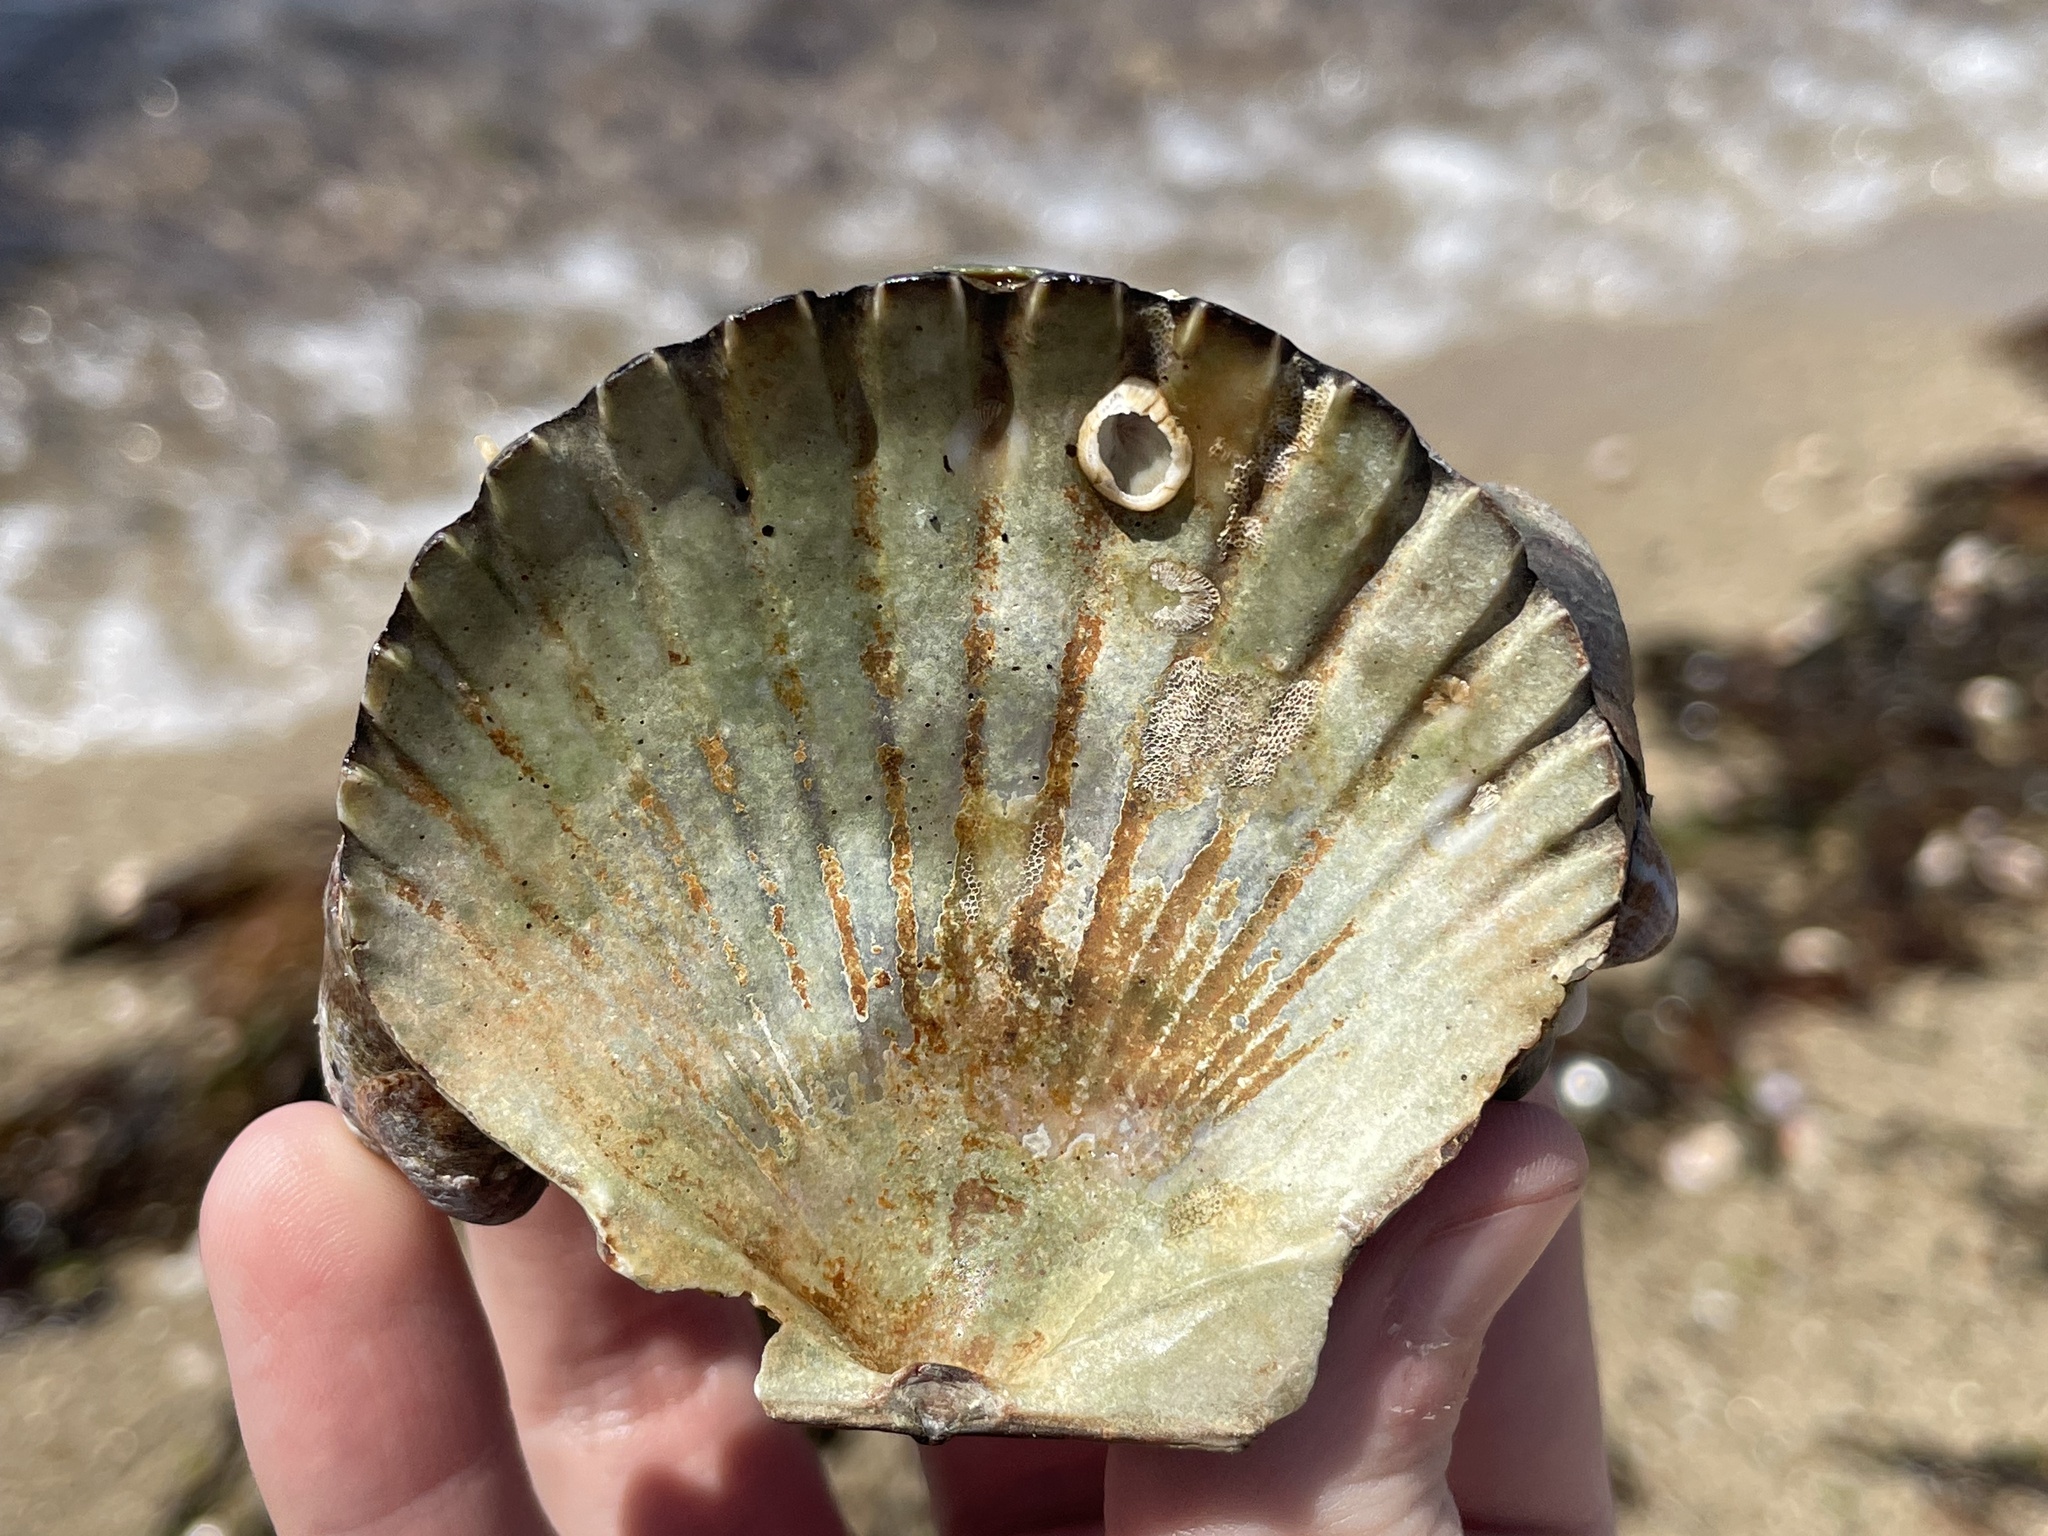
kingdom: Animalia
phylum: Mollusca
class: Bivalvia
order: Pectinida
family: Pectinidae
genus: Argopecten
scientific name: Argopecten irradians
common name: Atlantic bay scallop
